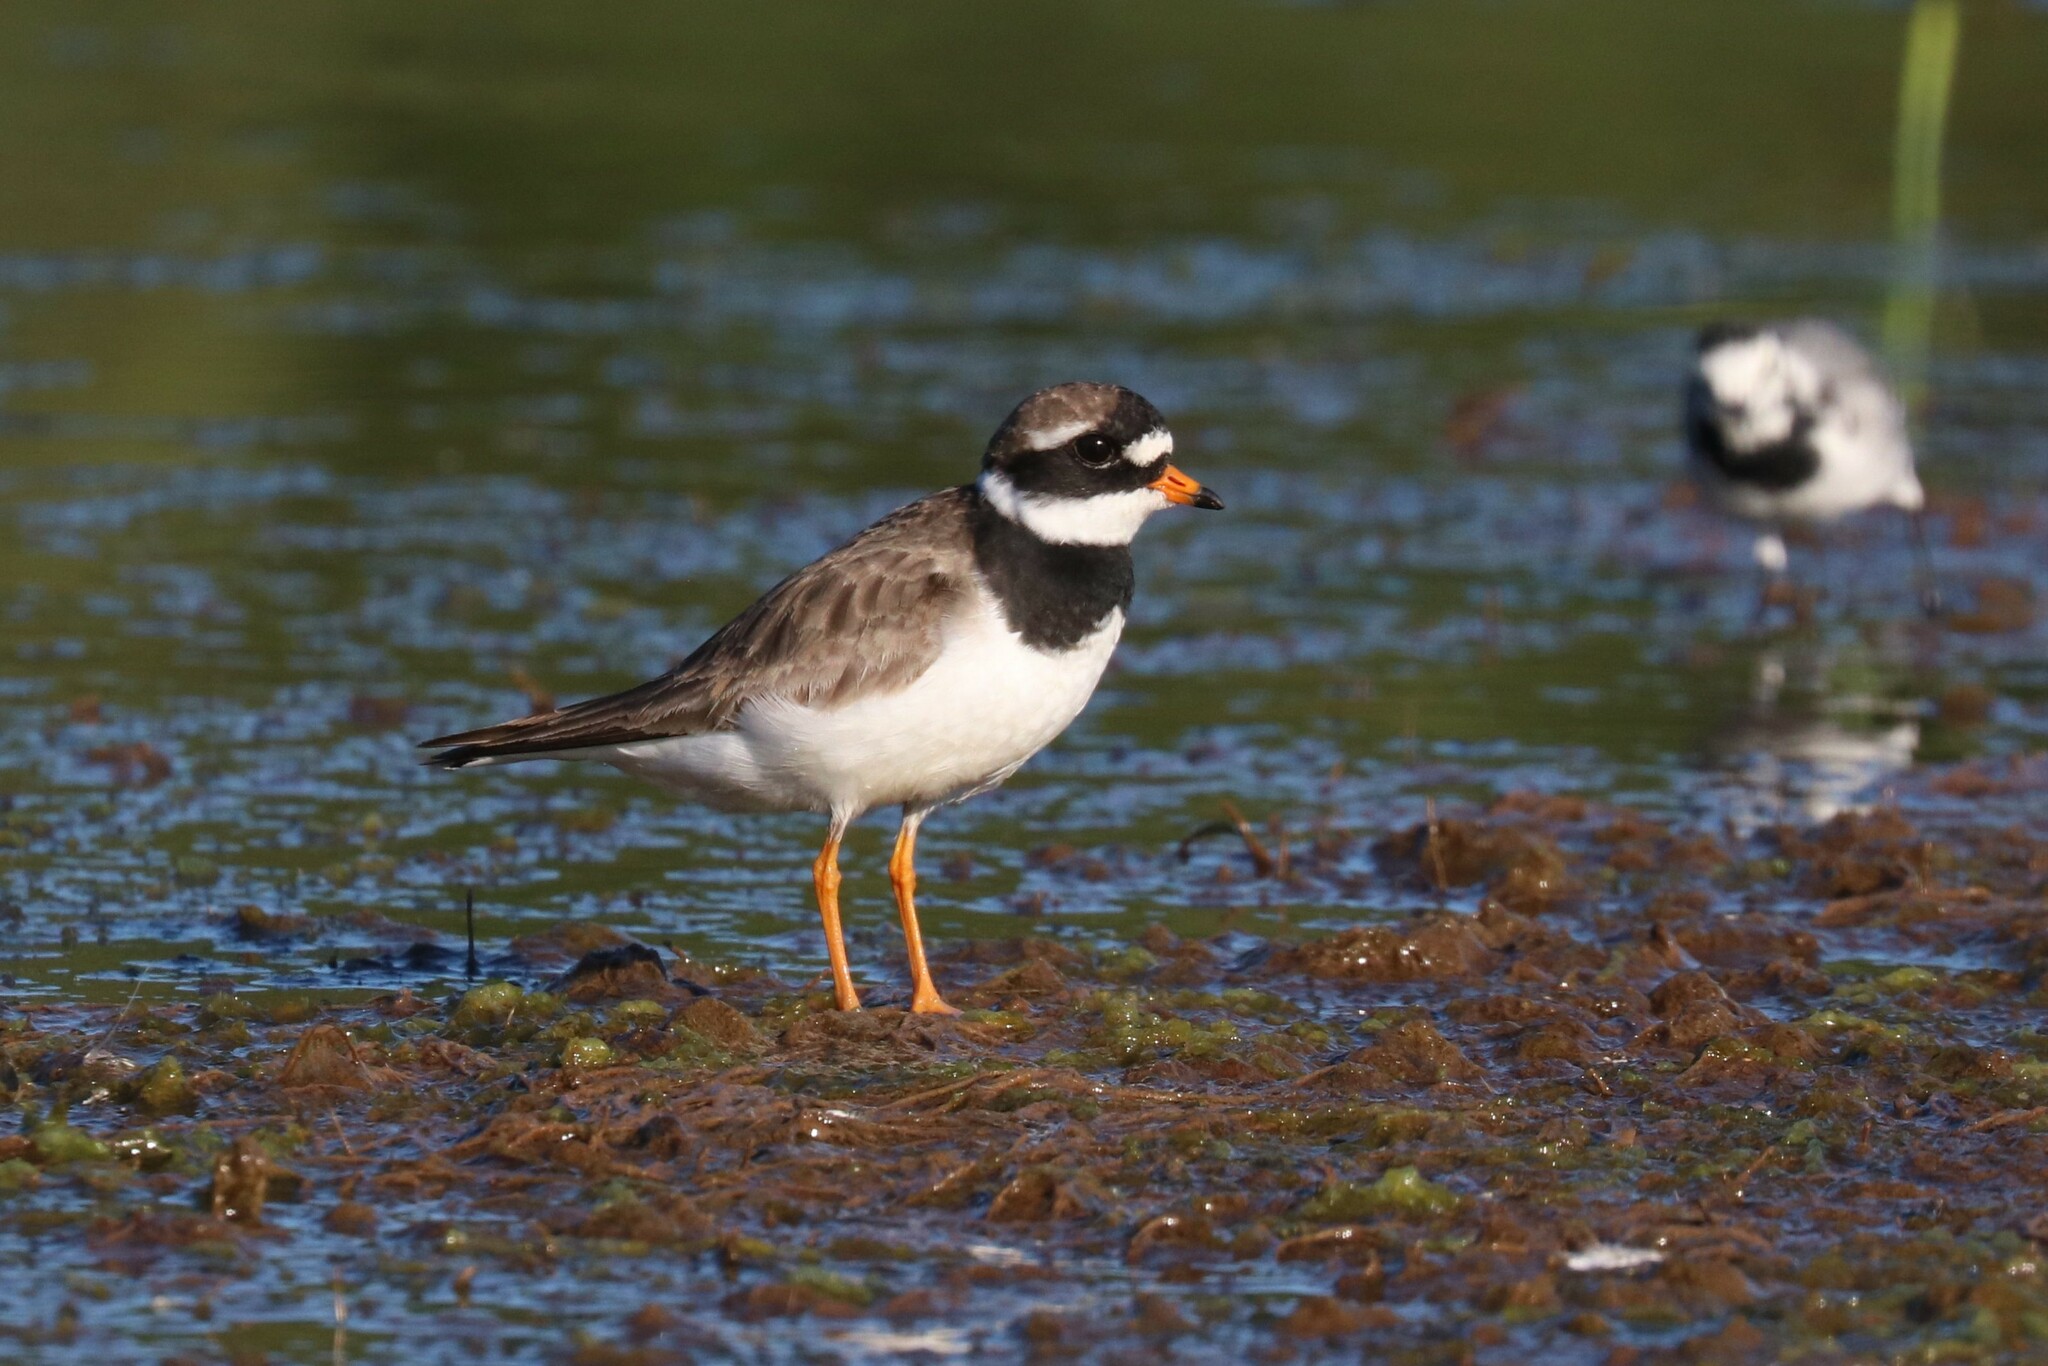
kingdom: Animalia
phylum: Chordata
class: Aves
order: Charadriiformes
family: Charadriidae
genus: Charadrius
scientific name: Charadrius hiaticula
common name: Common ringed plover
